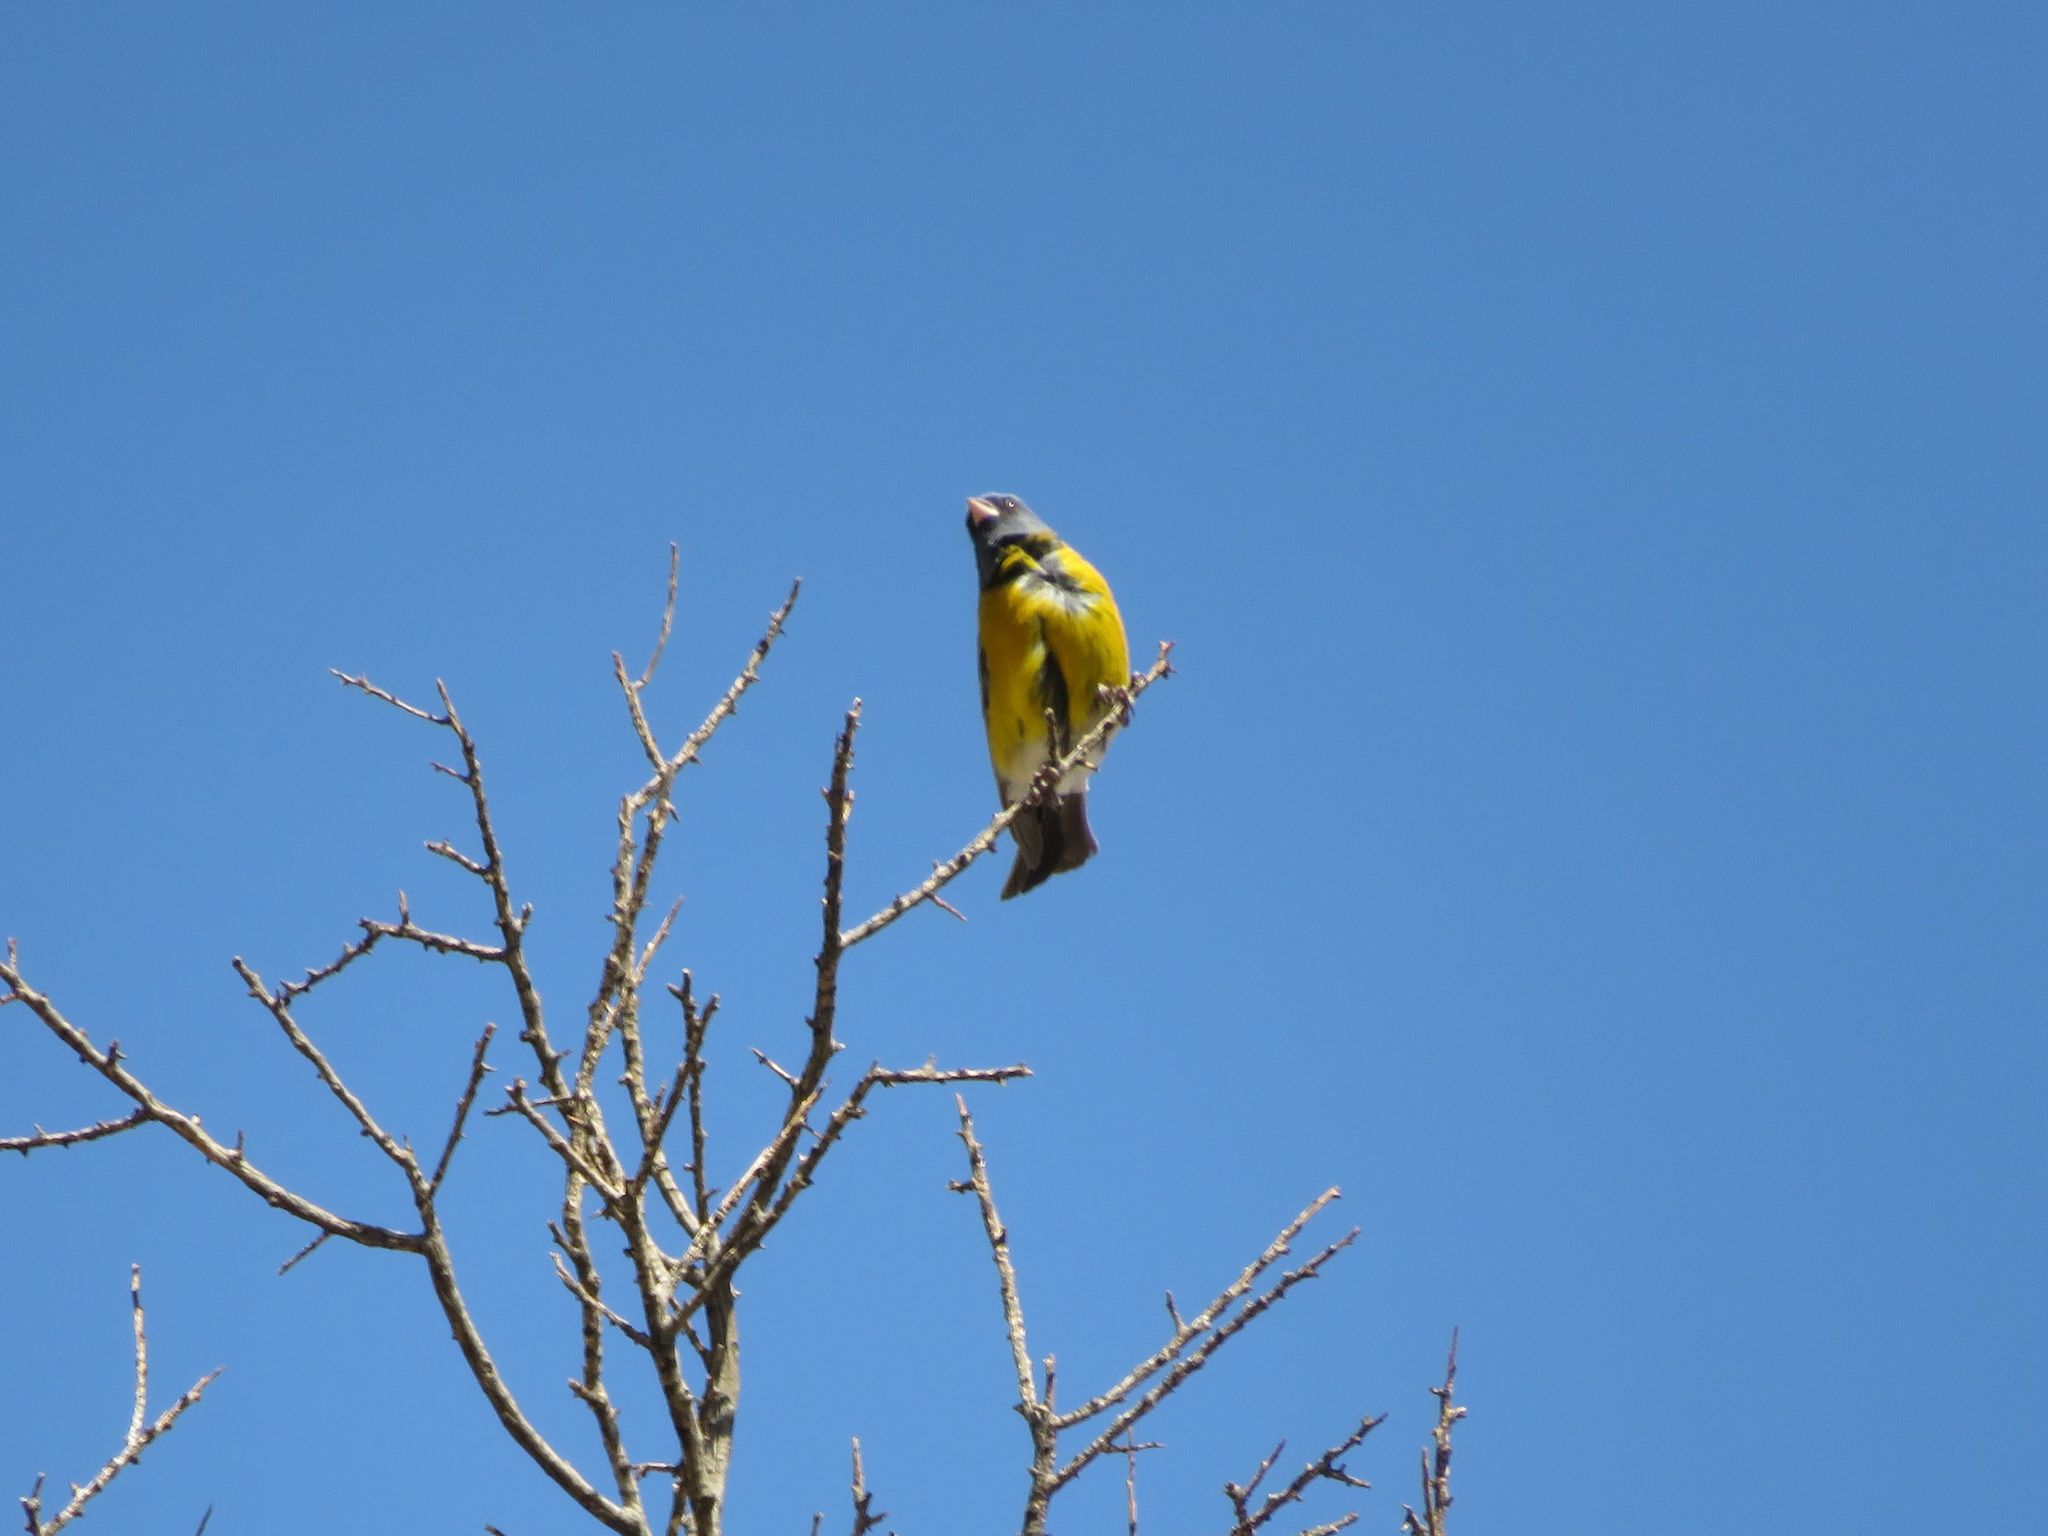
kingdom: Animalia
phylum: Chordata
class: Aves
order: Passeriformes
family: Thraupidae
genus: Phrygilus
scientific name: Phrygilus gayi
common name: Grey-hooded sierra finch
